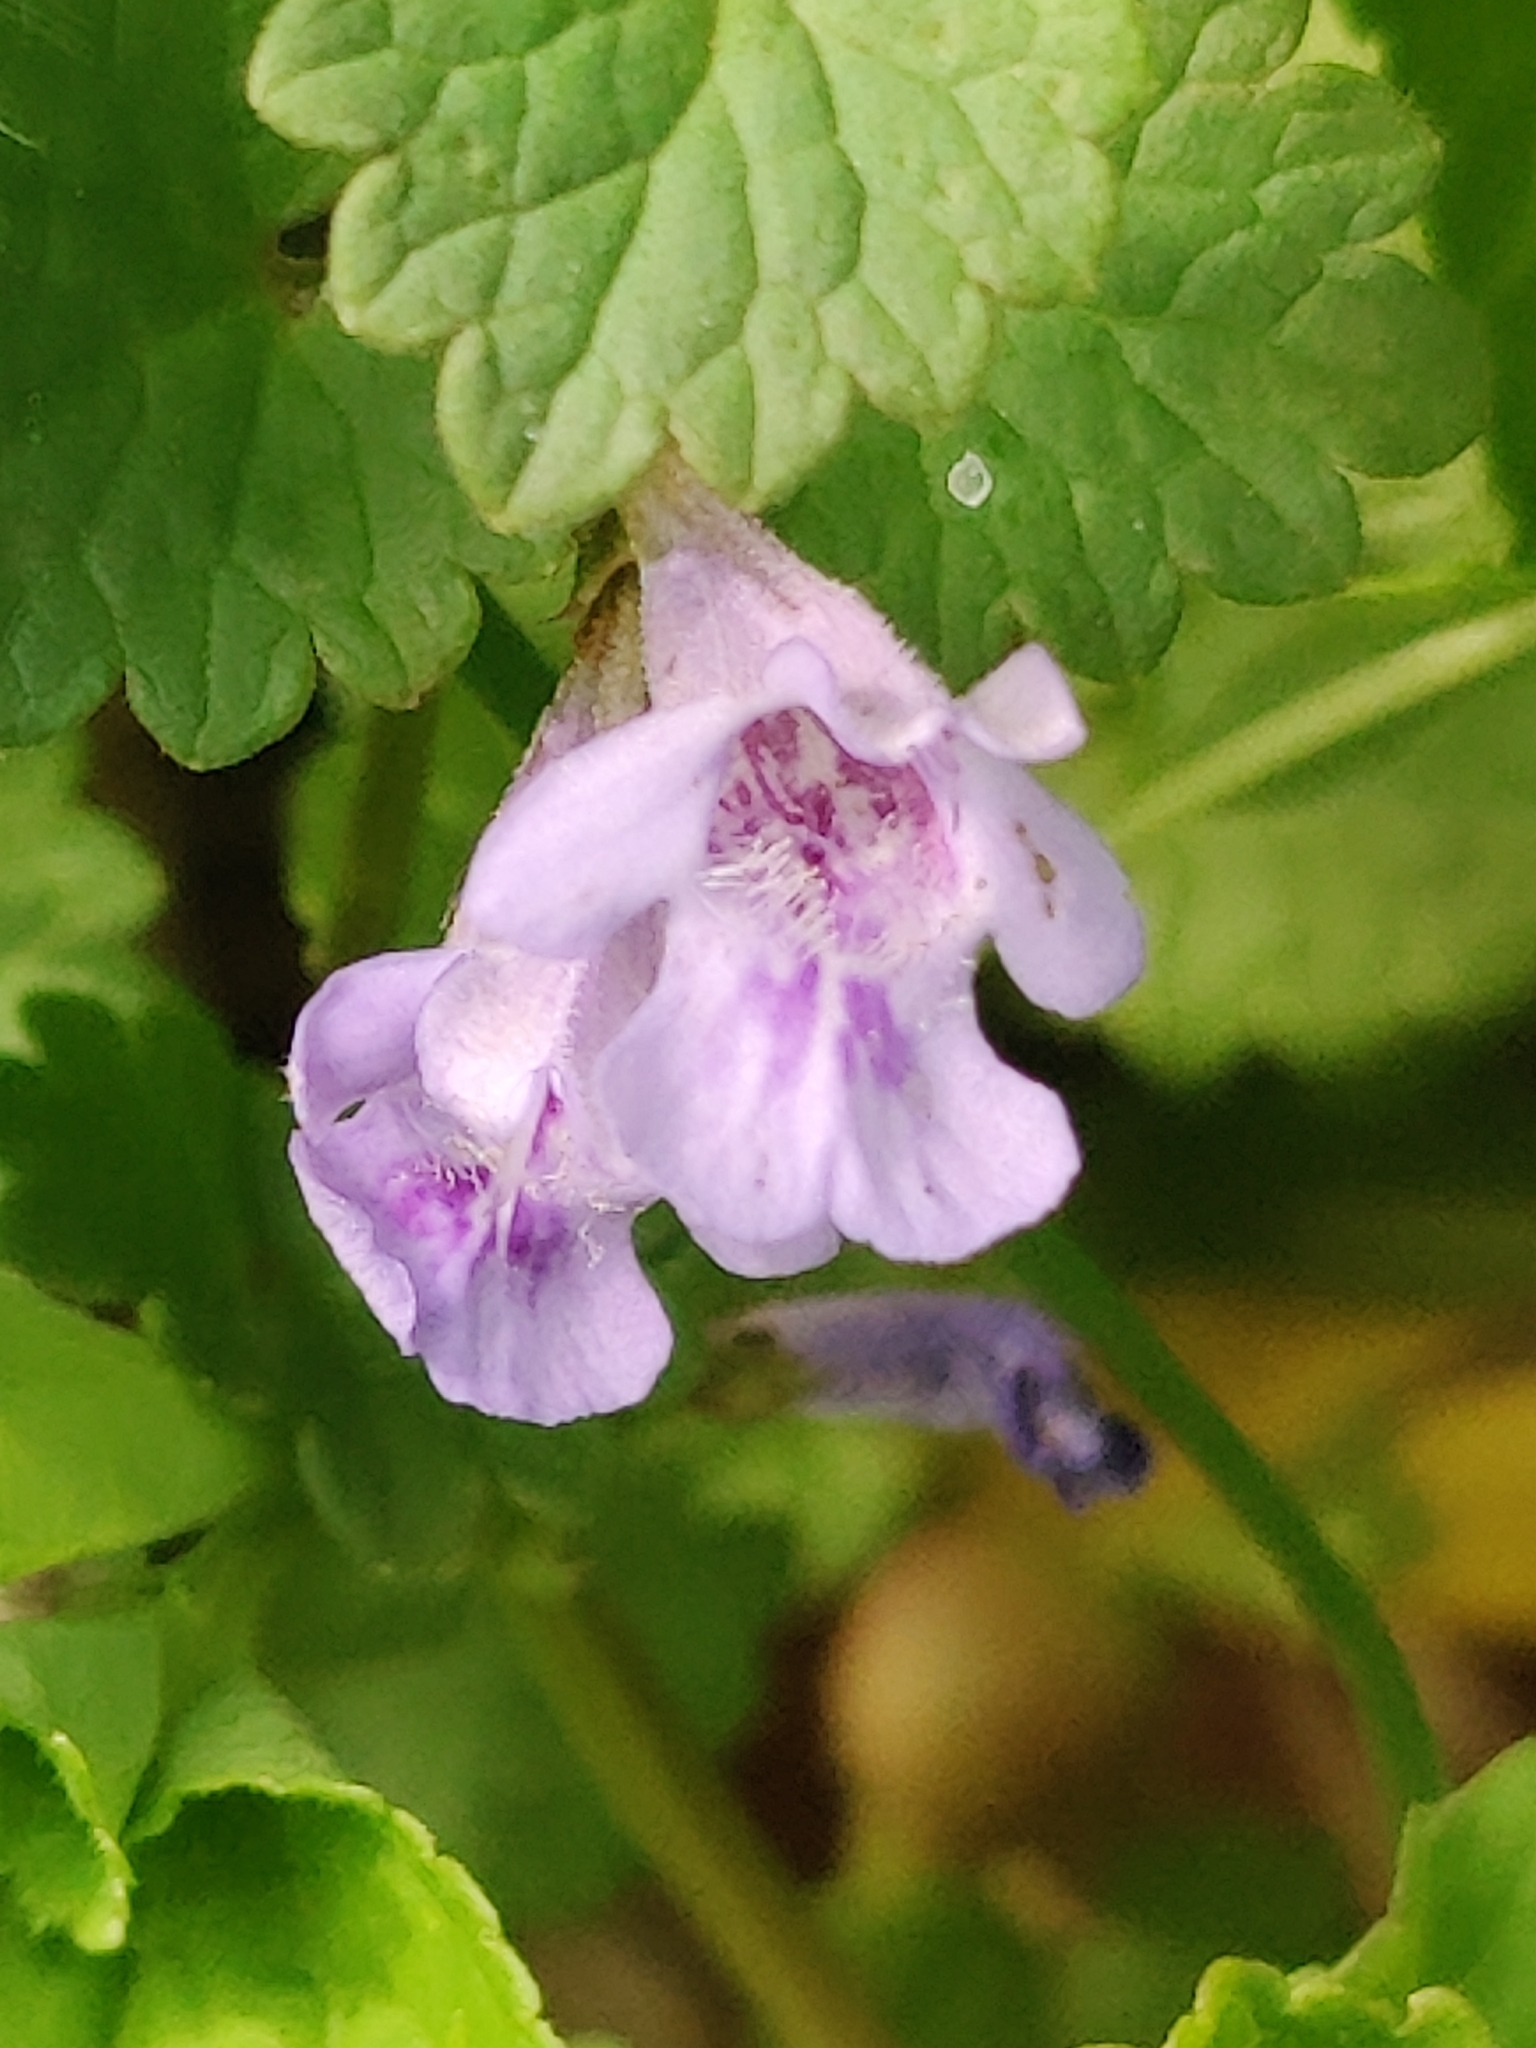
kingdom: Plantae
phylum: Tracheophyta
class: Magnoliopsida
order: Lamiales
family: Lamiaceae
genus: Glechoma
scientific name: Glechoma hederacea
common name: Ground ivy
